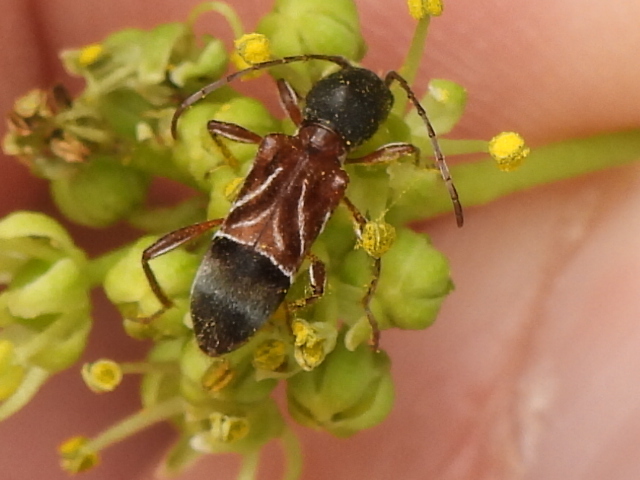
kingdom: Animalia
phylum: Arthropoda
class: Insecta
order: Coleoptera
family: Cerambycidae
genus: Cyrtophorus
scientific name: Cyrtophorus verrucosus
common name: Ant-like longhorn beetle
